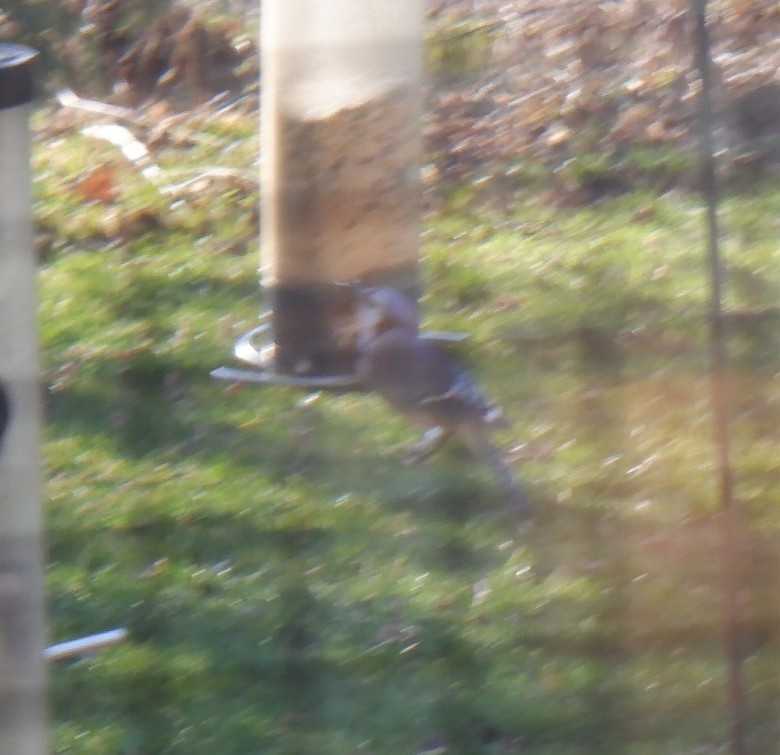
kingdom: Animalia
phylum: Chordata
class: Aves
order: Passeriformes
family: Corvidae
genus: Cyanocitta
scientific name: Cyanocitta cristata
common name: Blue jay
